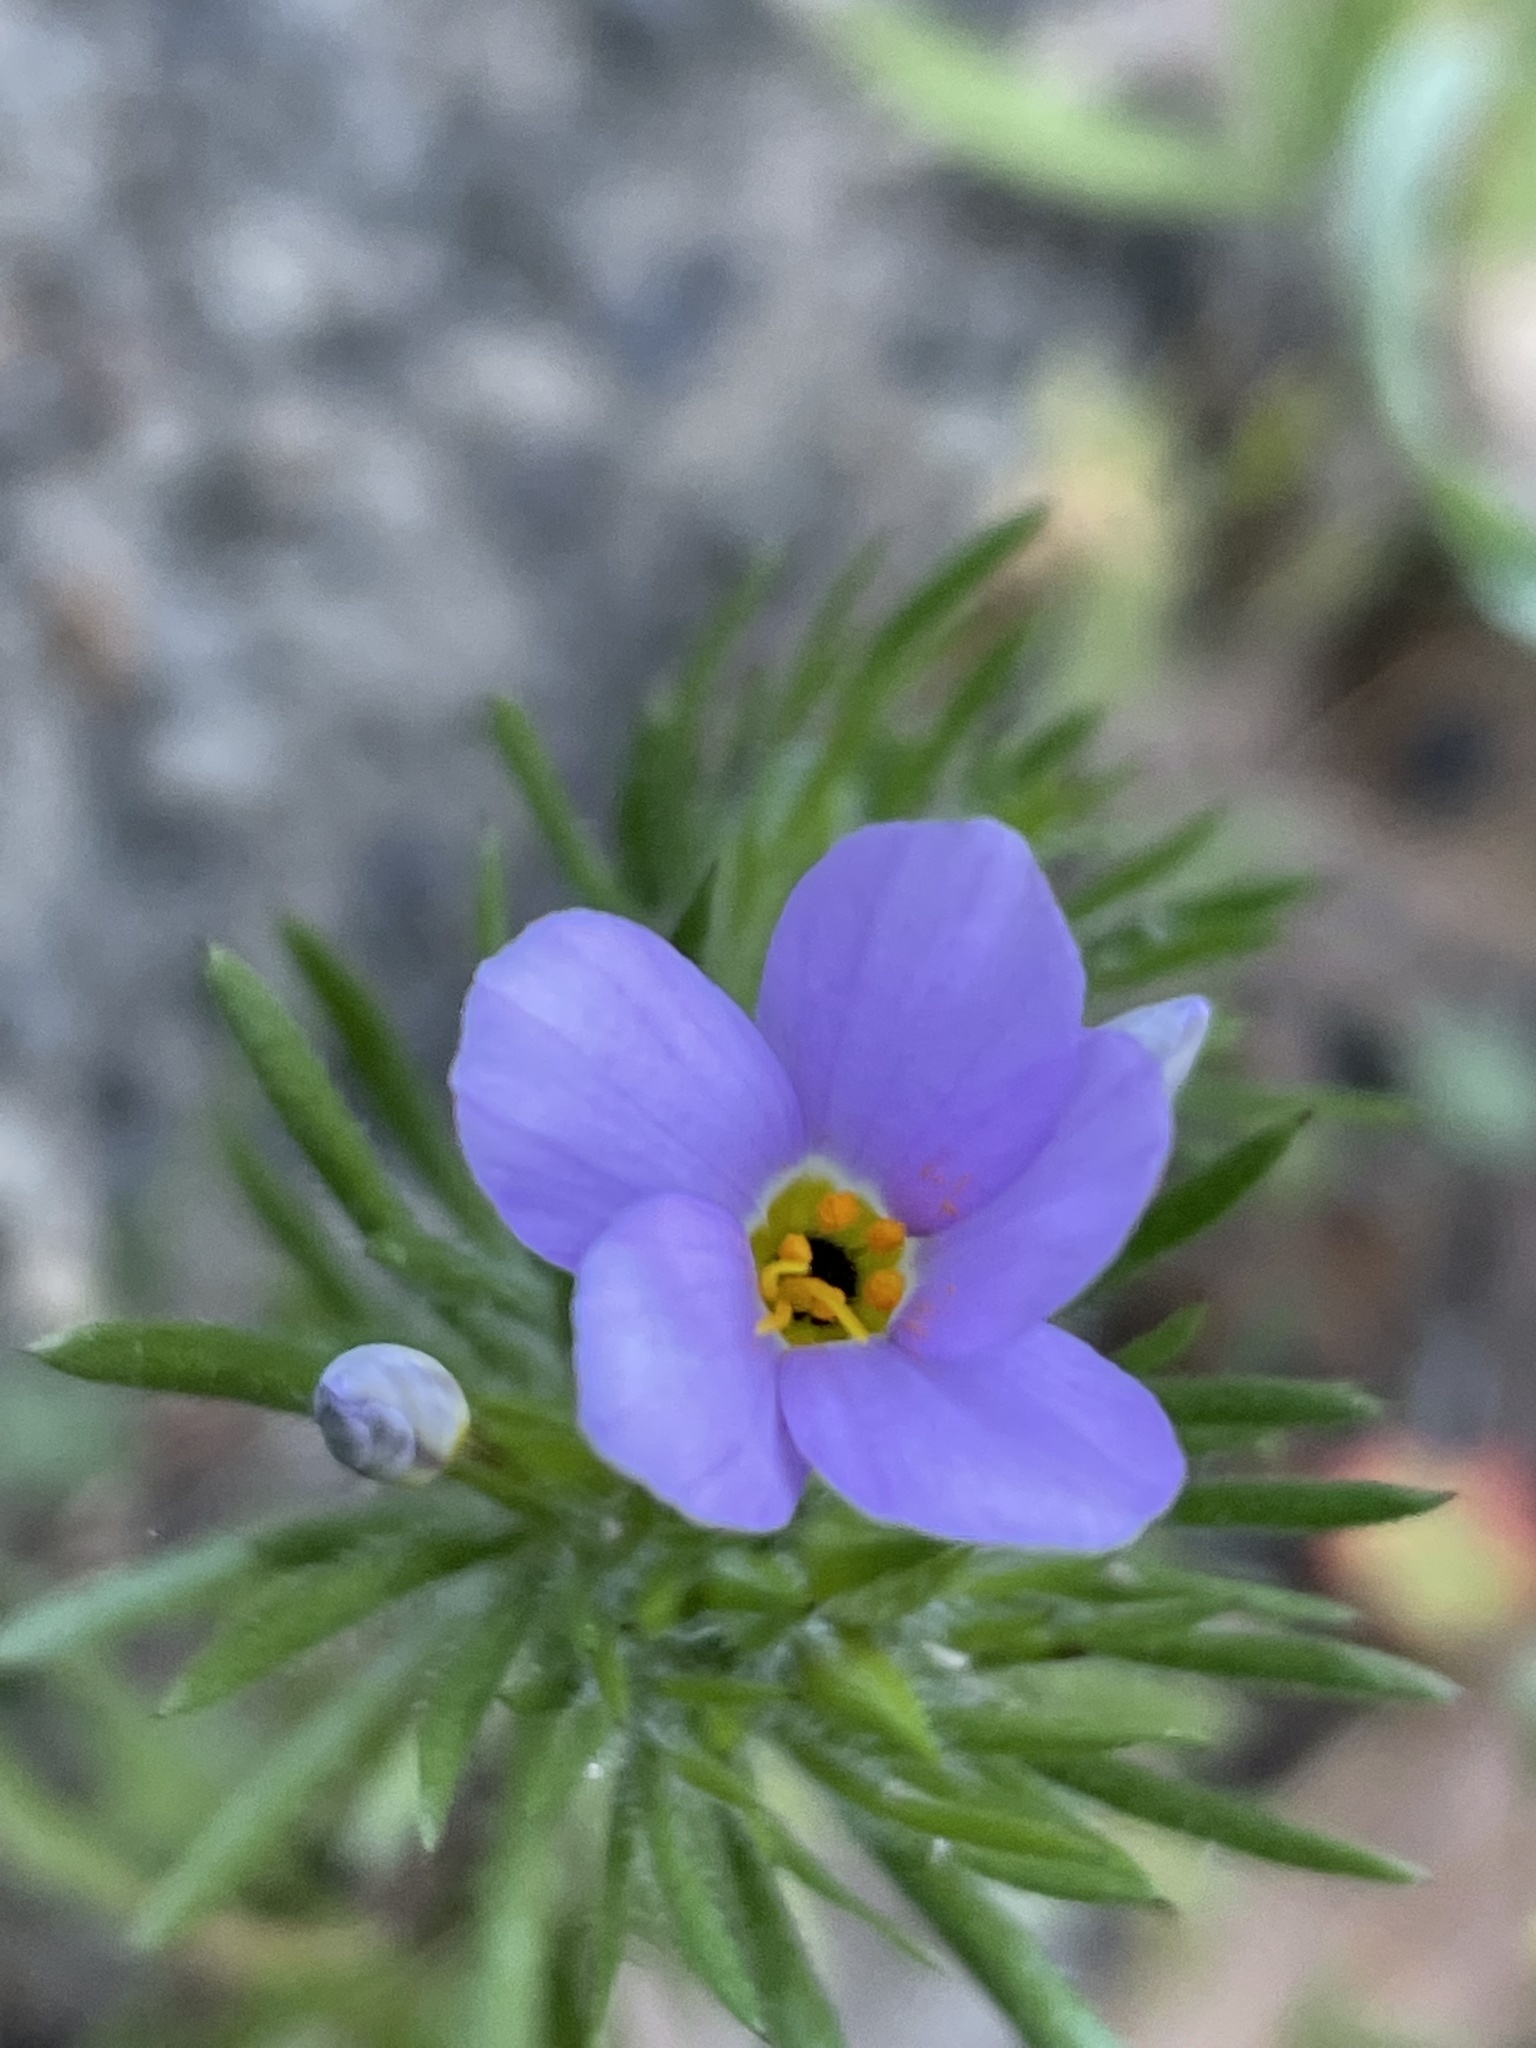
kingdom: Plantae
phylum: Tracheophyta
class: Magnoliopsida
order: Ericales
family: Polemoniaceae
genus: Leptosiphon
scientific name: Leptosiphon androsaceus
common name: False babystars
